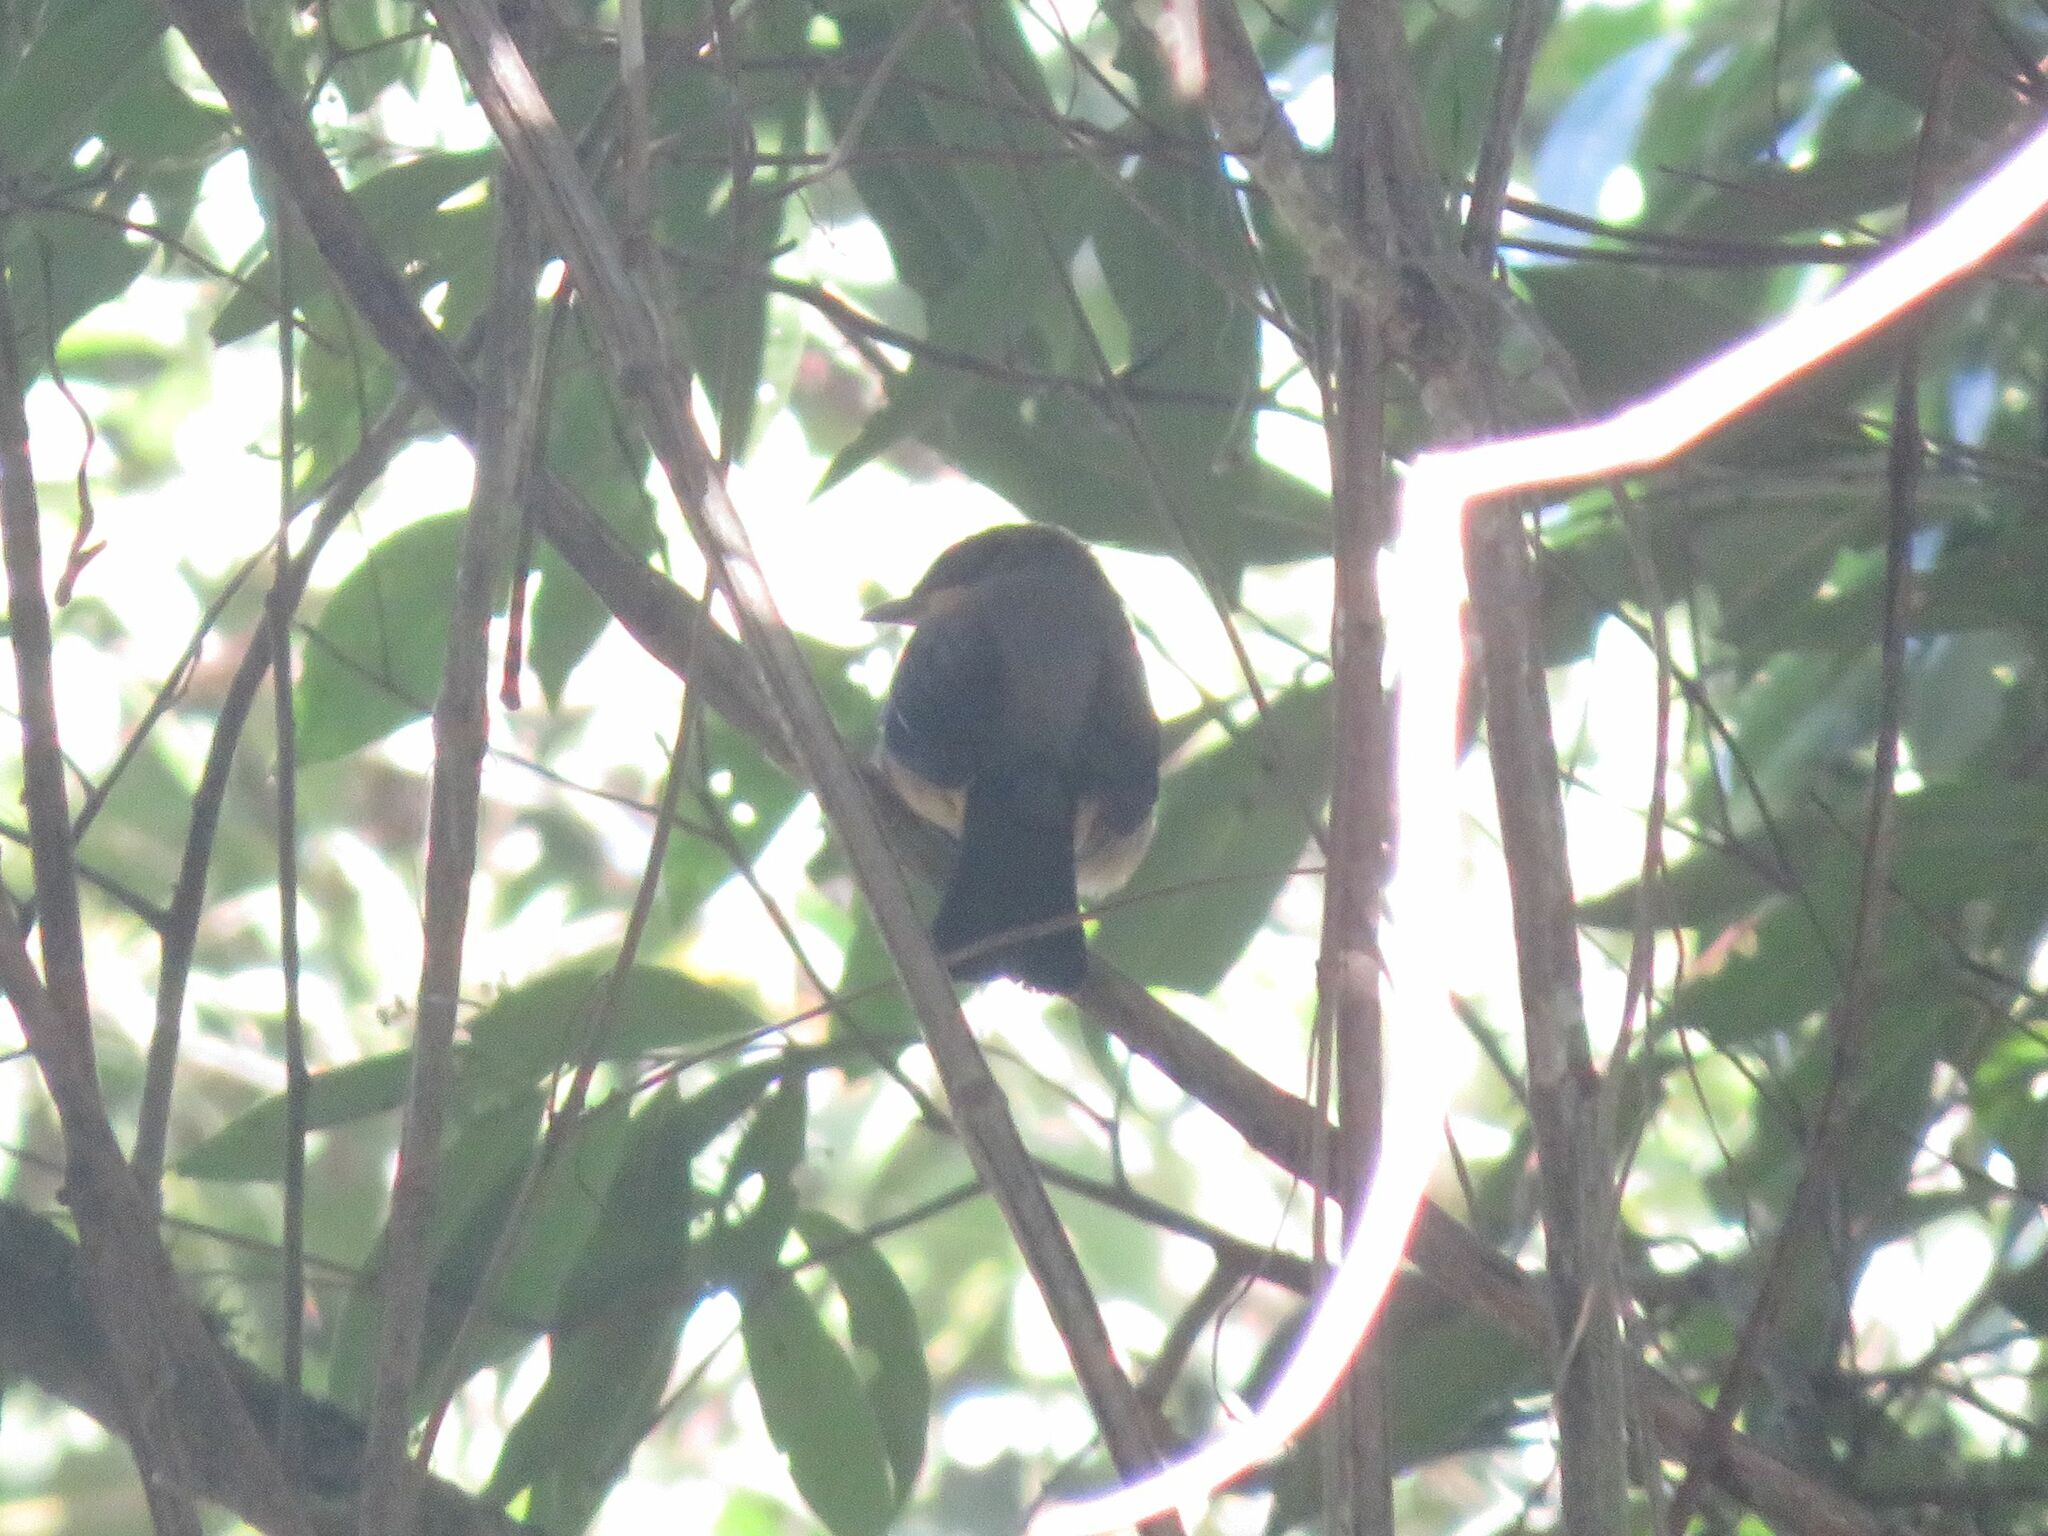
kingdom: Animalia
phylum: Chordata
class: Aves
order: Passeriformes
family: Thraupidae
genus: Trichothraupis
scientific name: Trichothraupis melanops
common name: Black-goggled tanager
